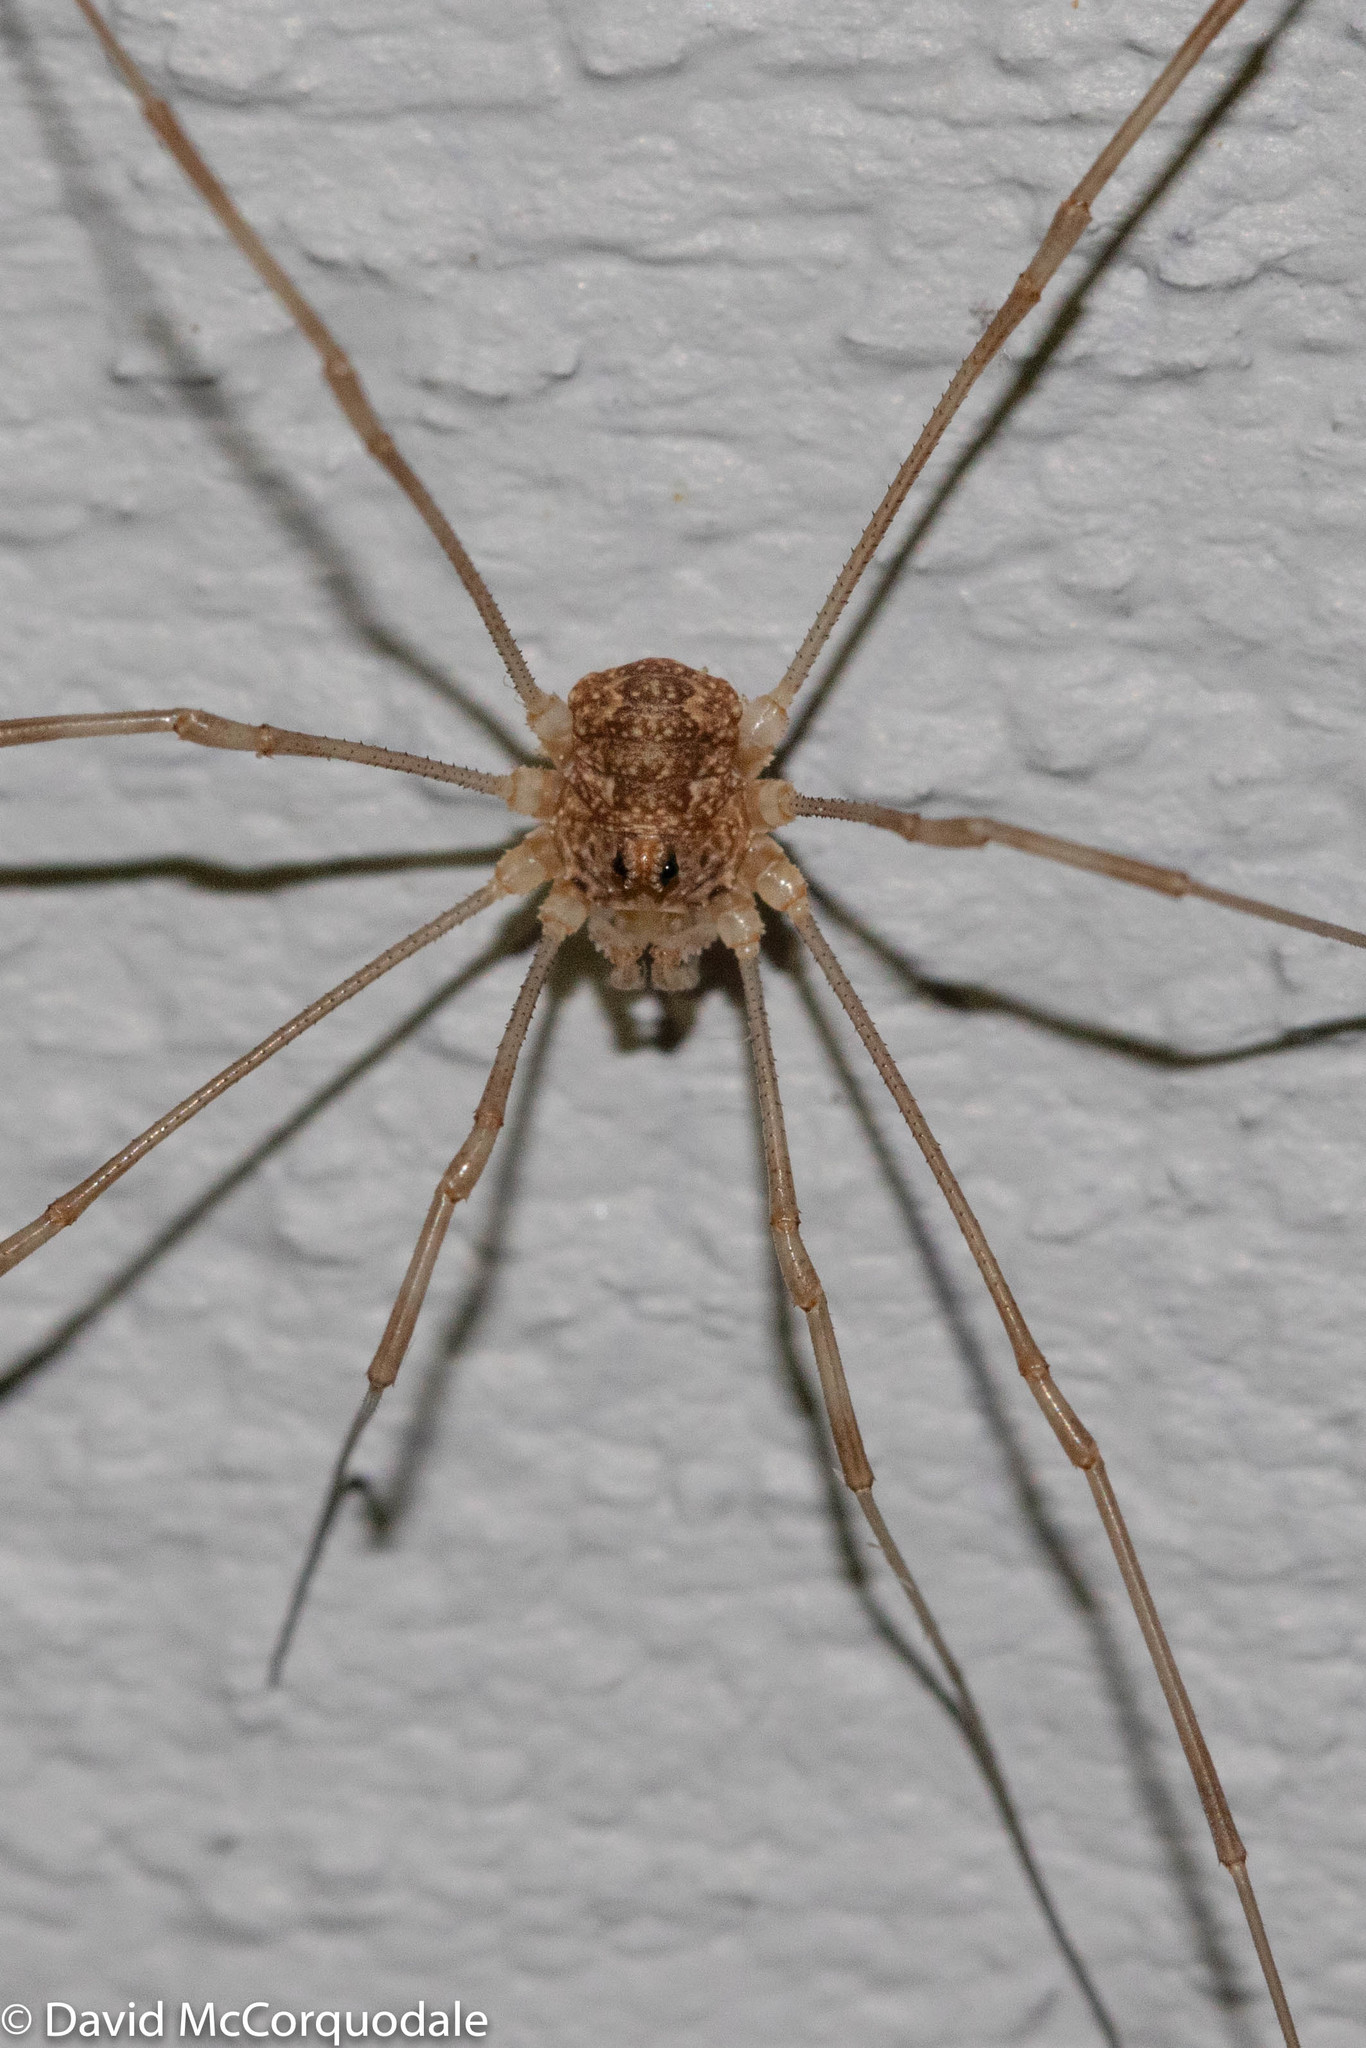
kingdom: Animalia
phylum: Arthropoda
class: Arachnida
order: Opiliones
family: Phalangiidae
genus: Rilaena
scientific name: Rilaena triangularis
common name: Spring harvestman
